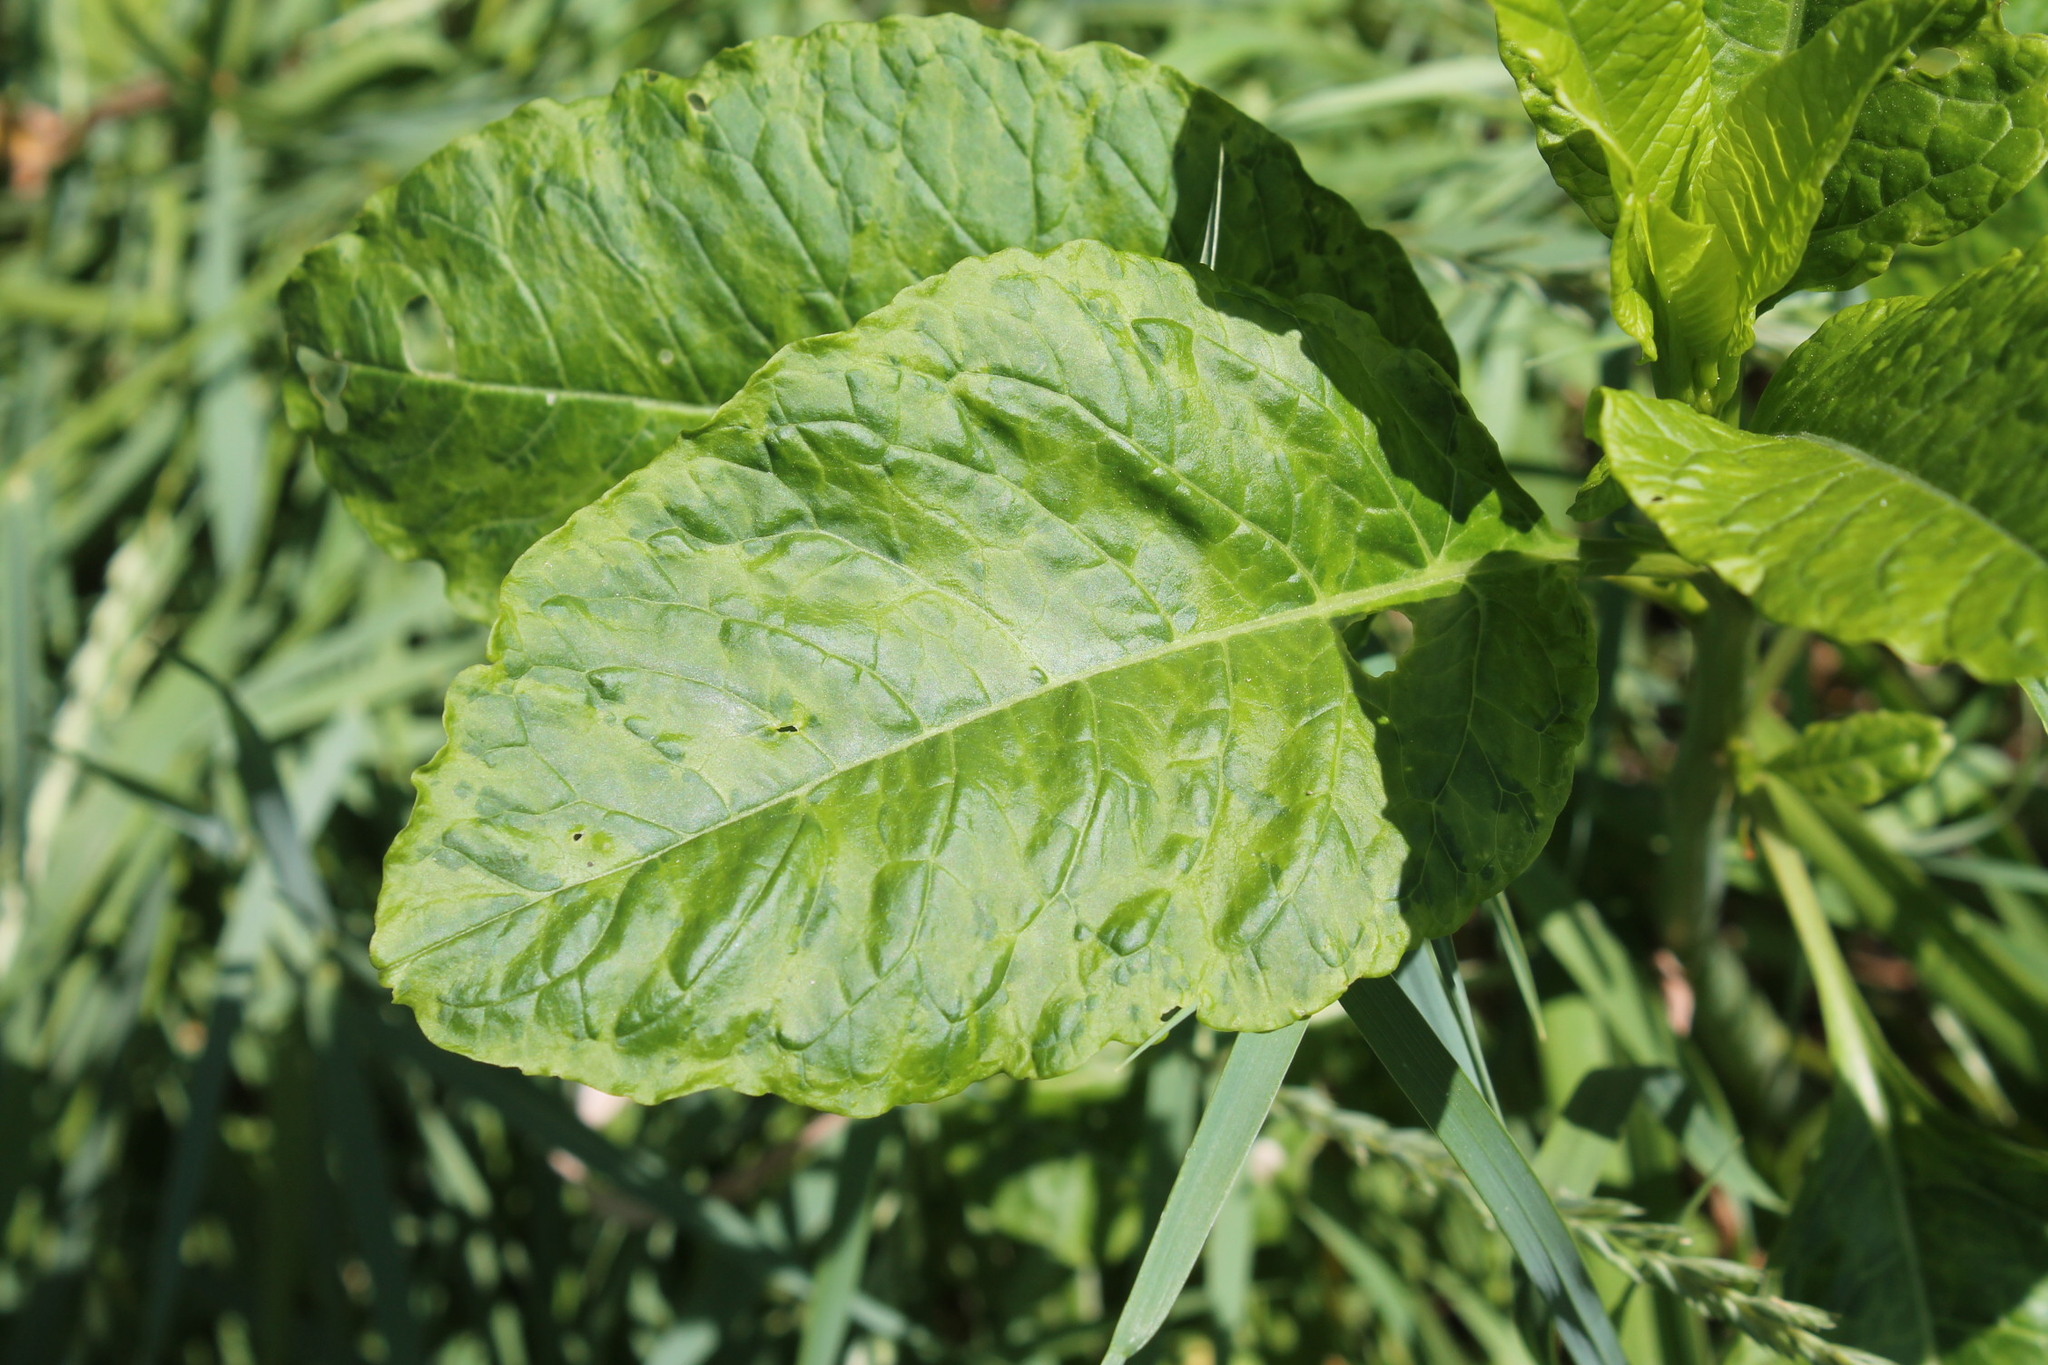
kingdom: Plantae
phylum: Tracheophyta
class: Magnoliopsida
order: Caryophyllales
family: Phytolaccaceae
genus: Phytolacca
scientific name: Phytolacca americana
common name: American pokeweed
